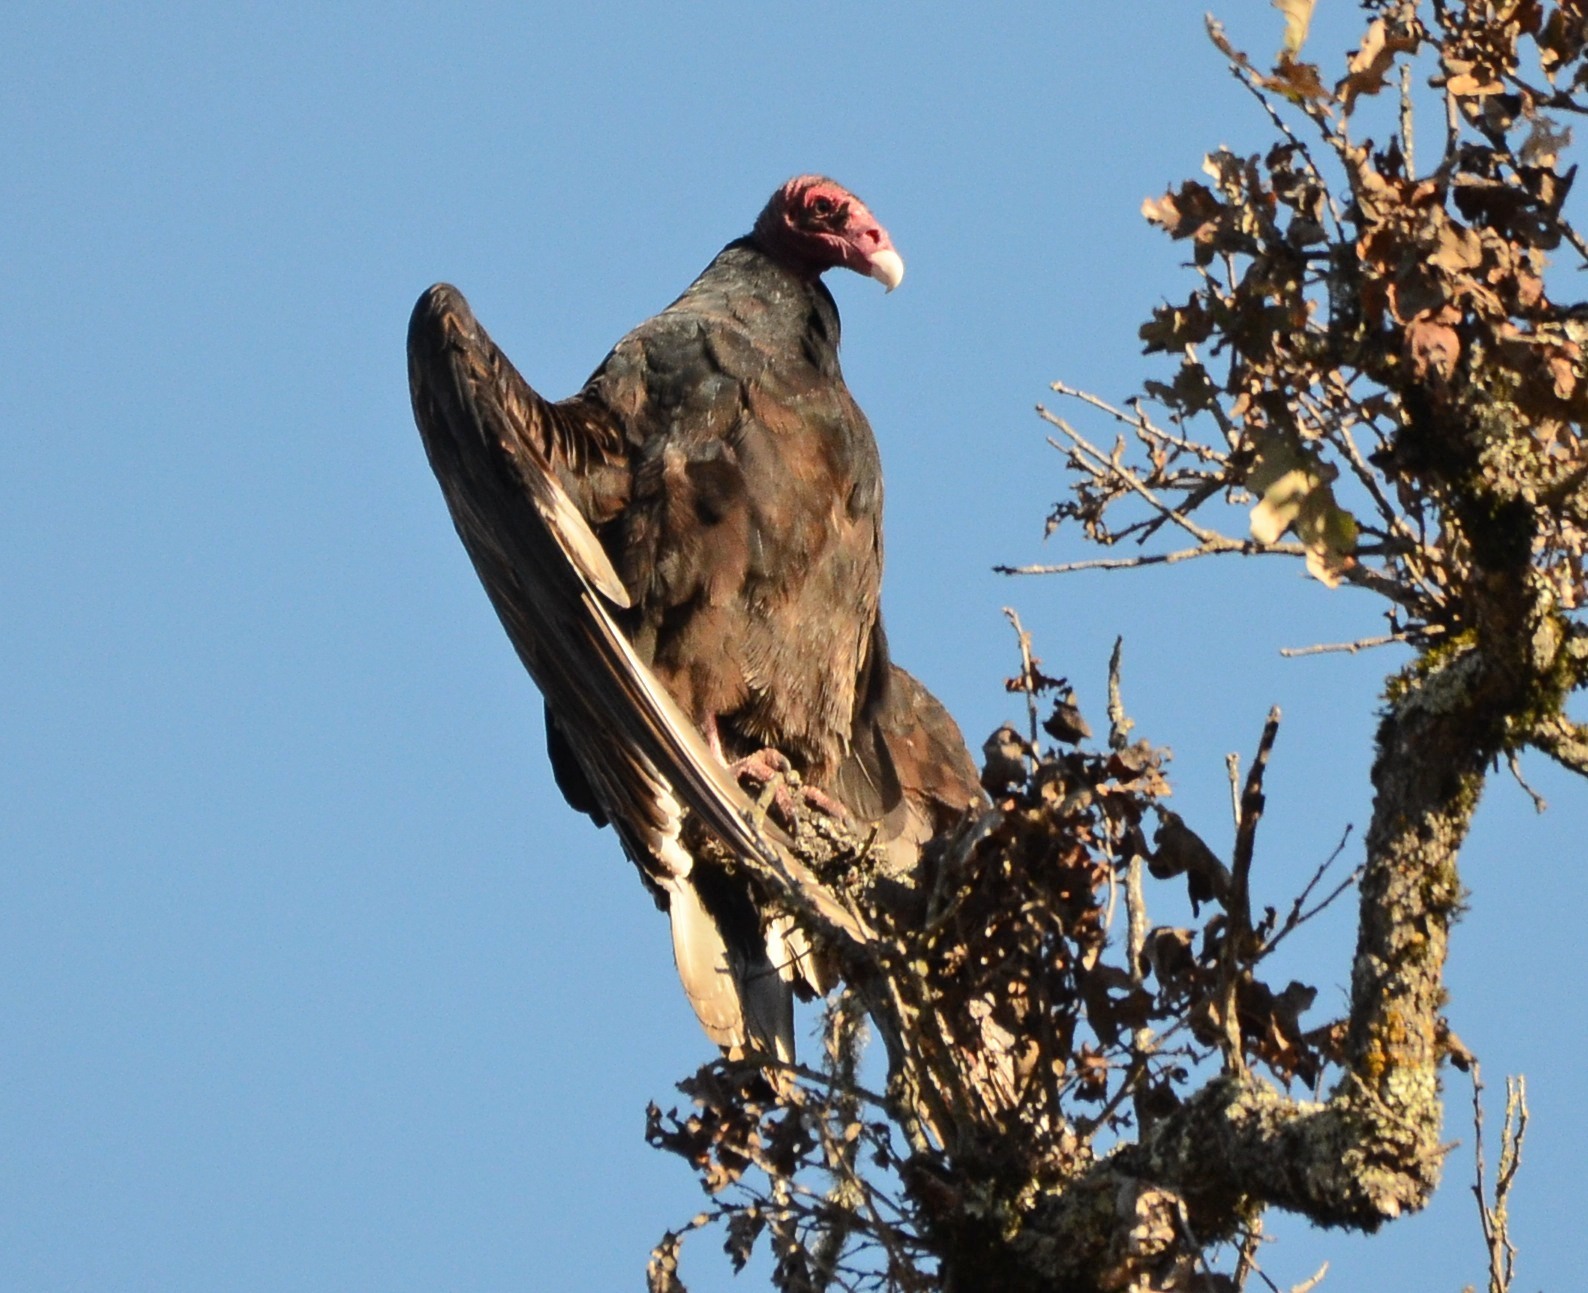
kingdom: Animalia
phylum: Chordata
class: Aves
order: Accipitriformes
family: Cathartidae
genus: Cathartes
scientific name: Cathartes aura
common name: Turkey vulture
